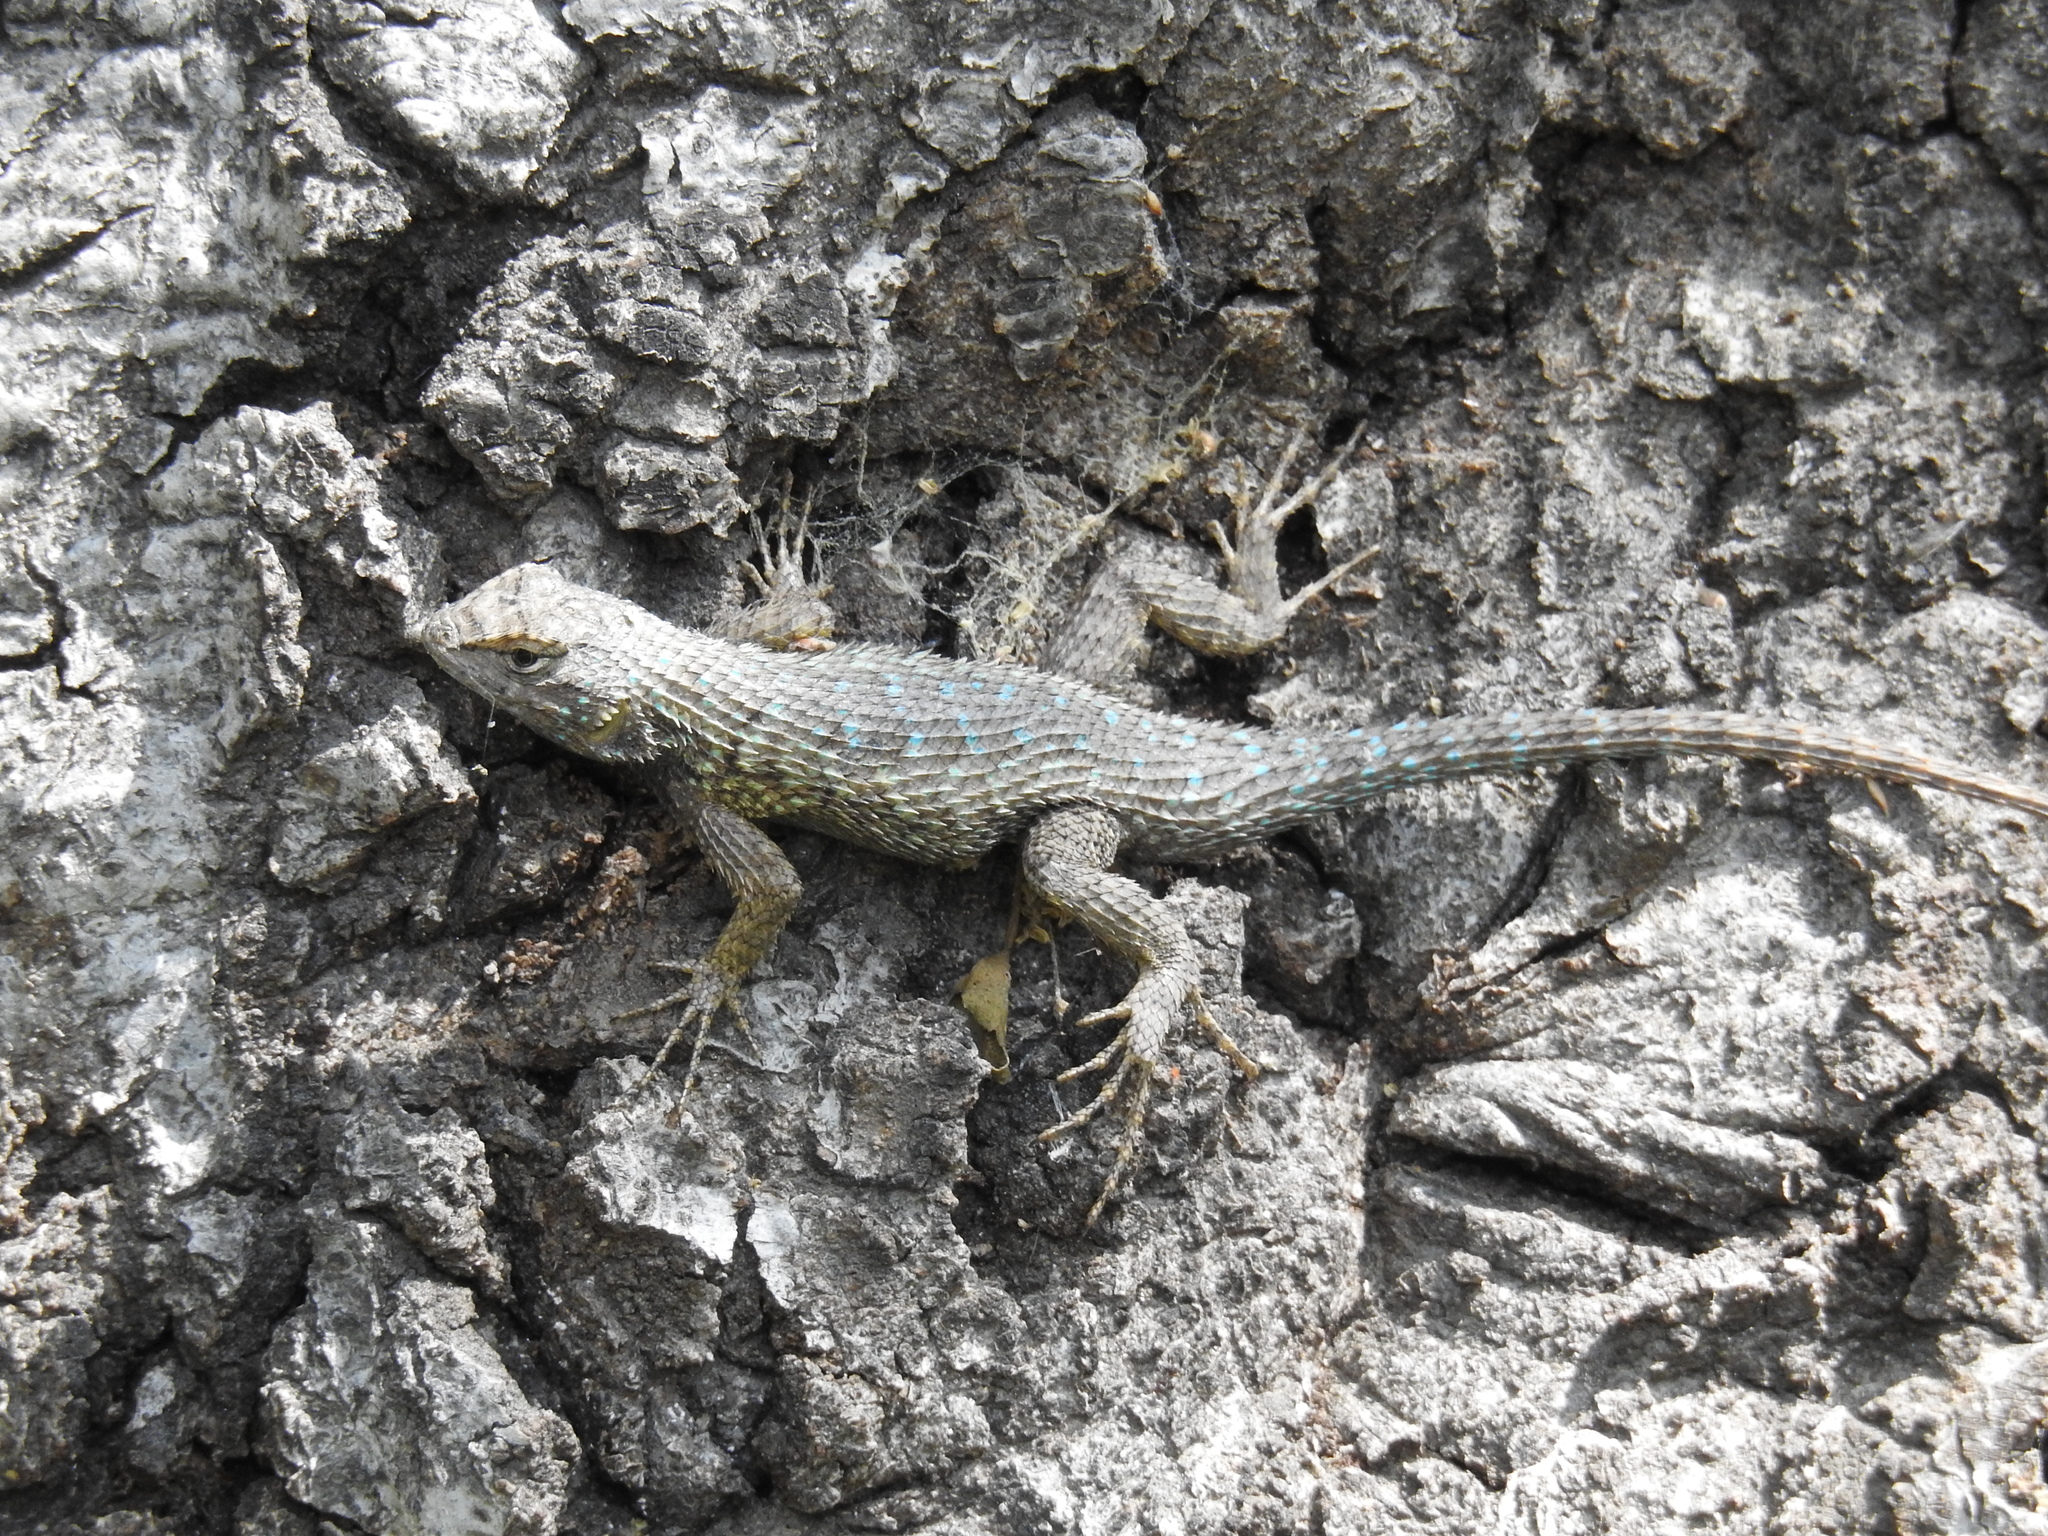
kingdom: Animalia
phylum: Chordata
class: Squamata
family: Phrynosomatidae
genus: Sceloporus
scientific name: Sceloporus occidentalis
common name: Western fence lizard
